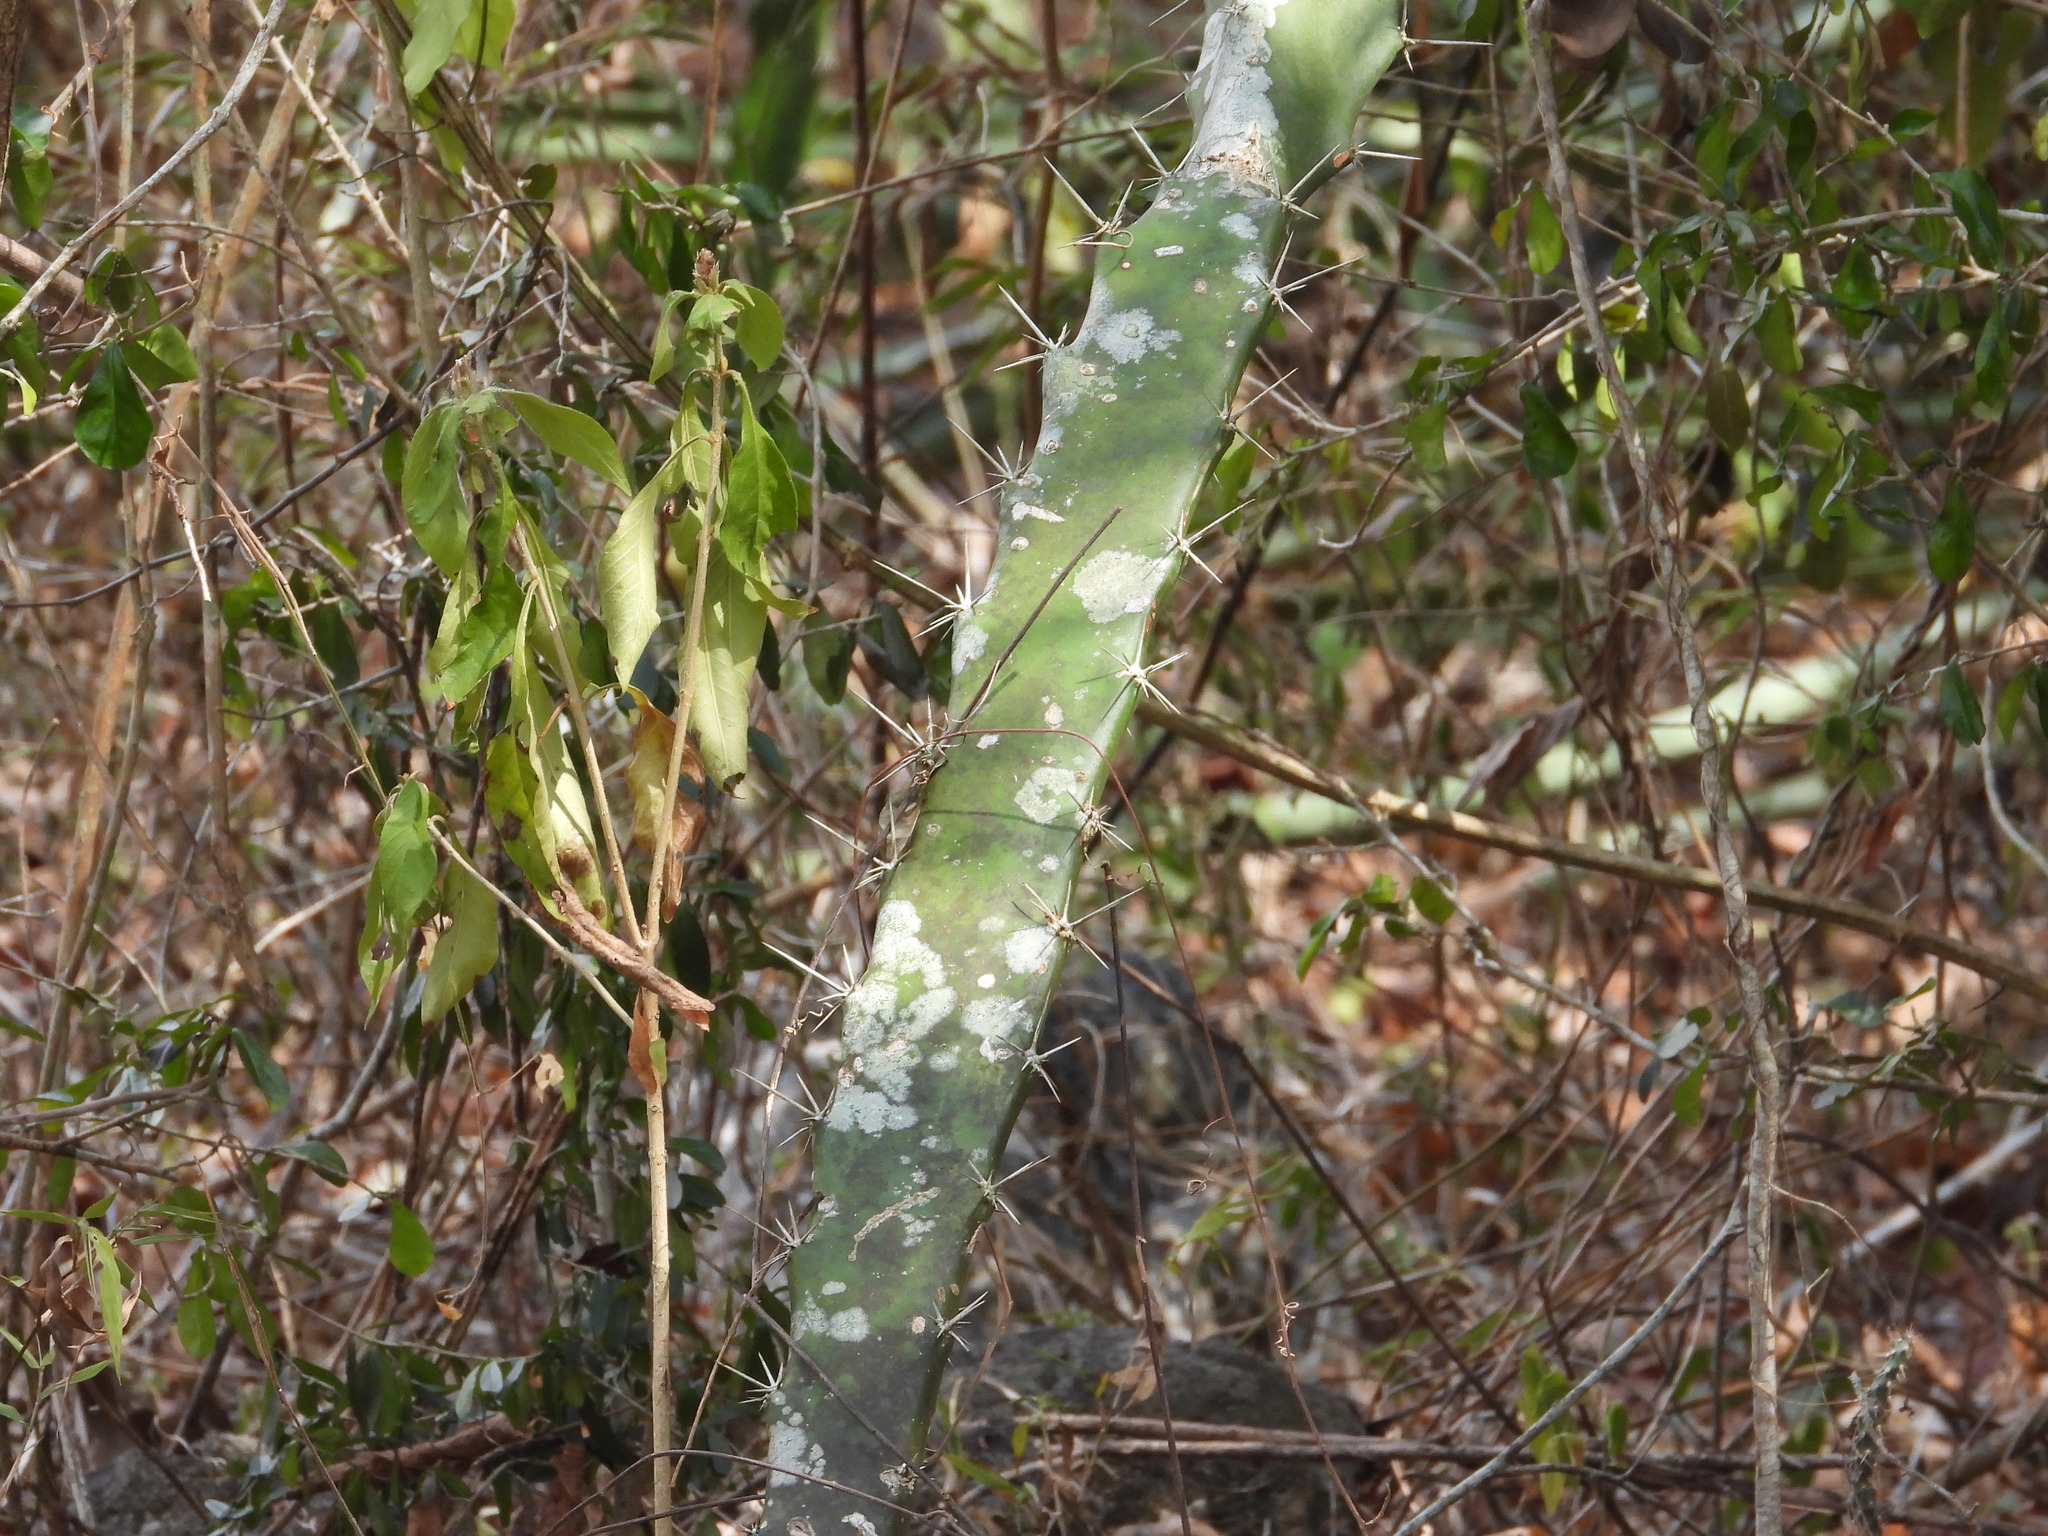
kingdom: Plantae
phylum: Tracheophyta
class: Magnoliopsida
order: Caryophyllales
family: Cactaceae
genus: Acanthocereus
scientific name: Acanthocereus tetragonus
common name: Triangle cactus
